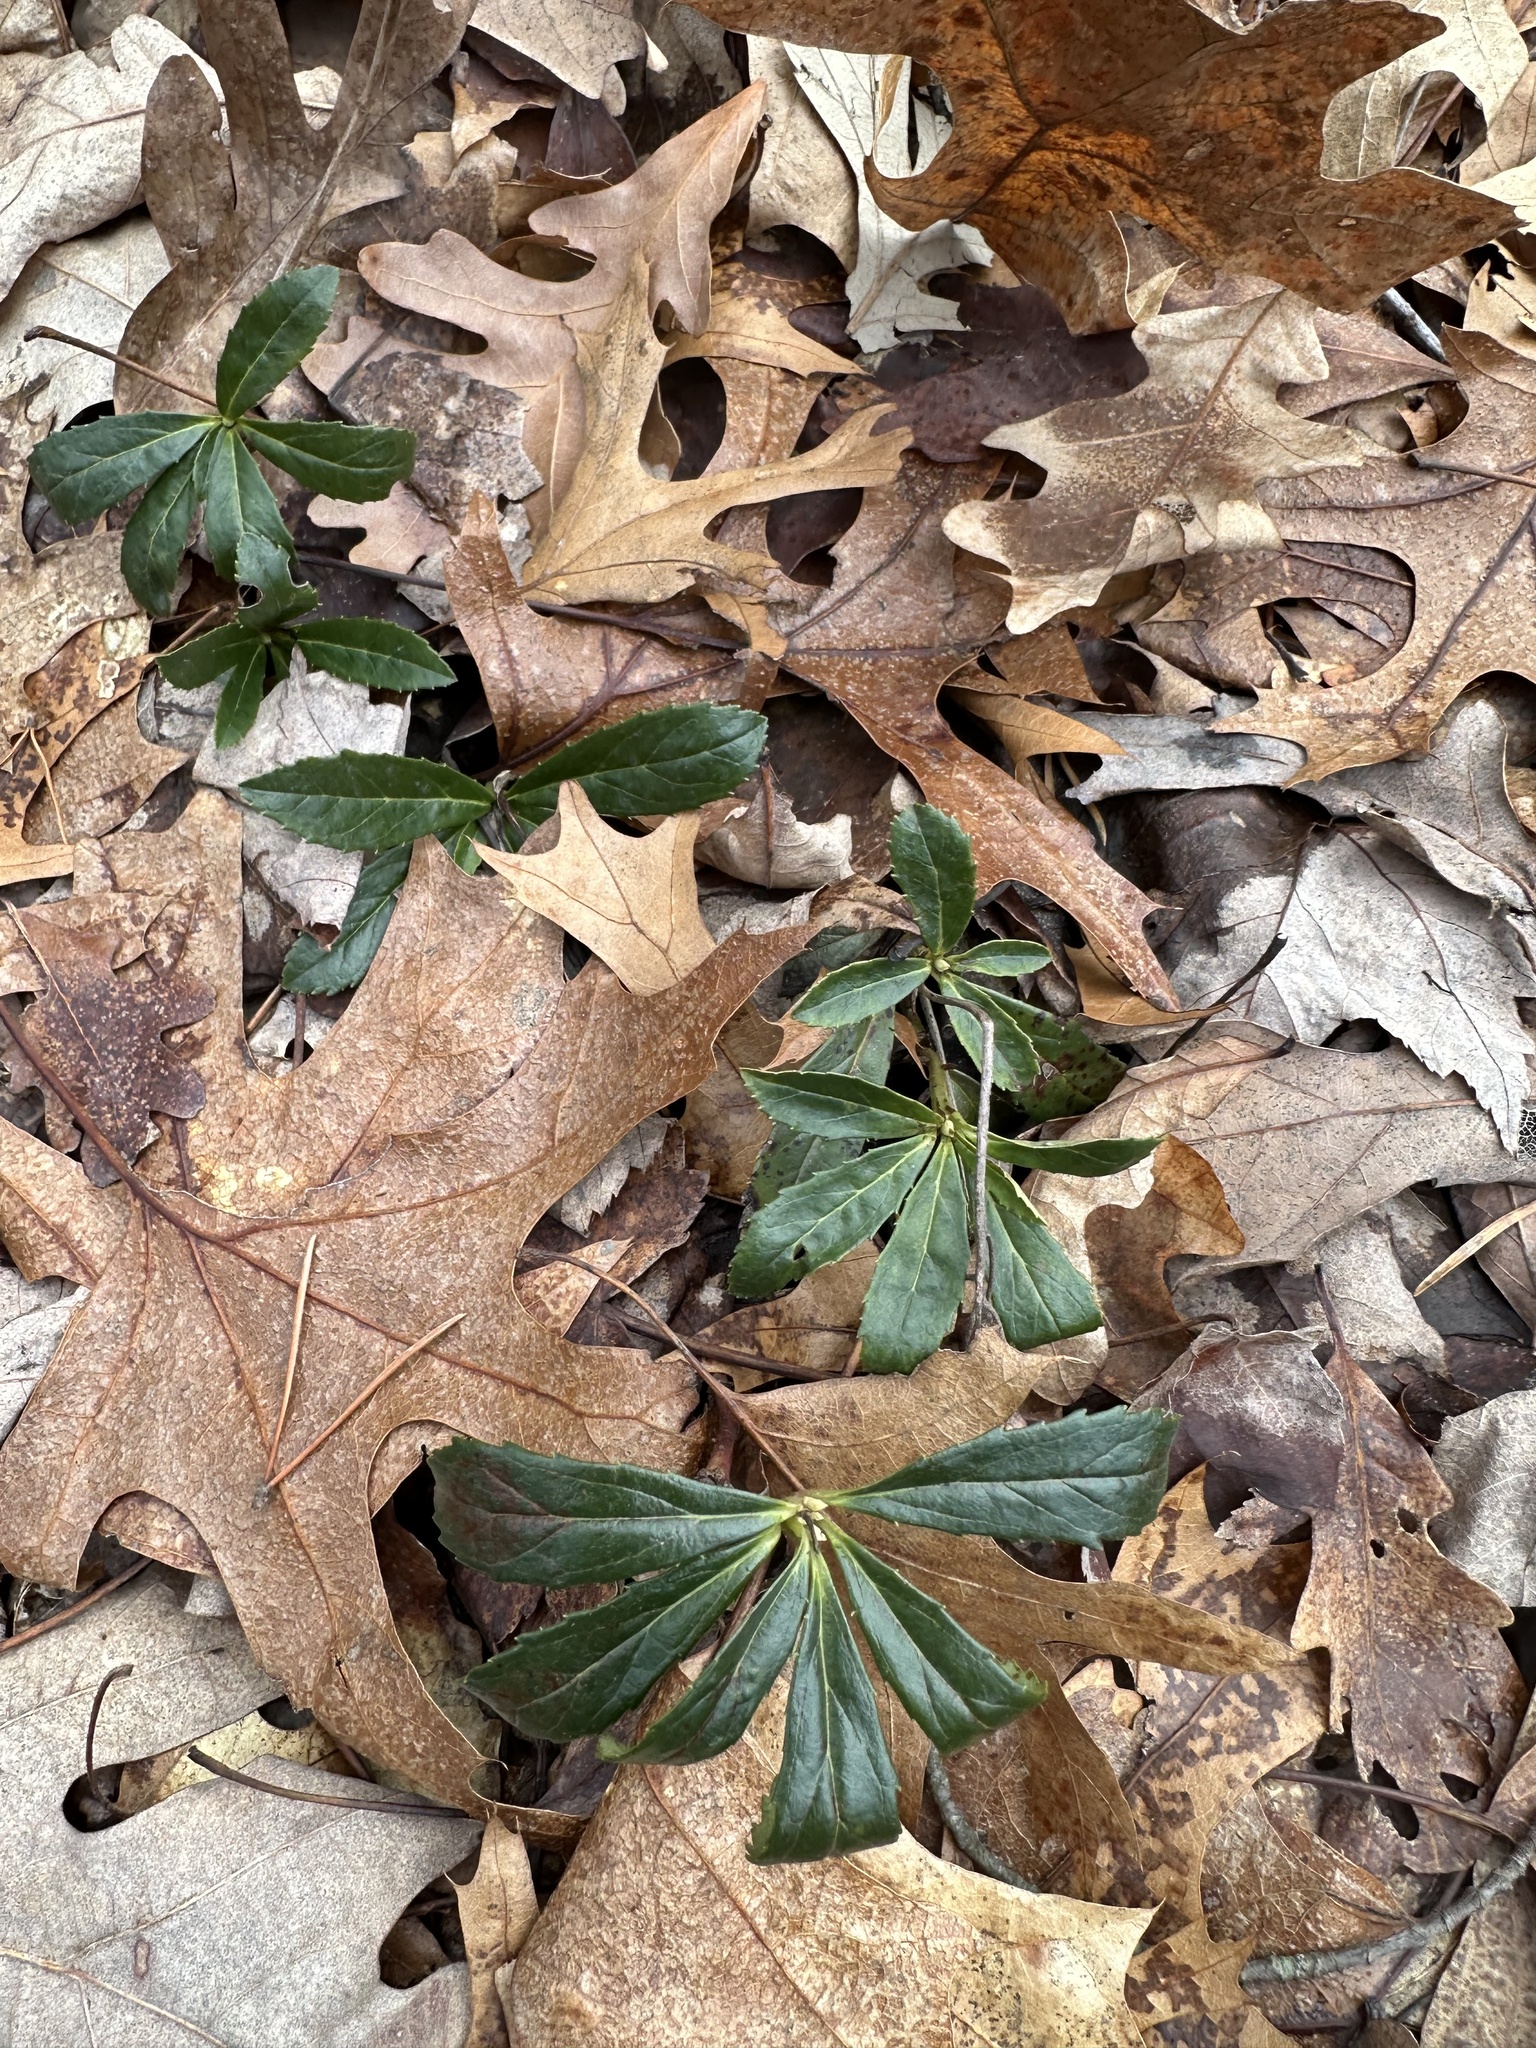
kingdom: Plantae
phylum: Tracheophyta
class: Magnoliopsida
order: Ericales
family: Ericaceae
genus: Chimaphila
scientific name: Chimaphila umbellata
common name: Pipsissewa
